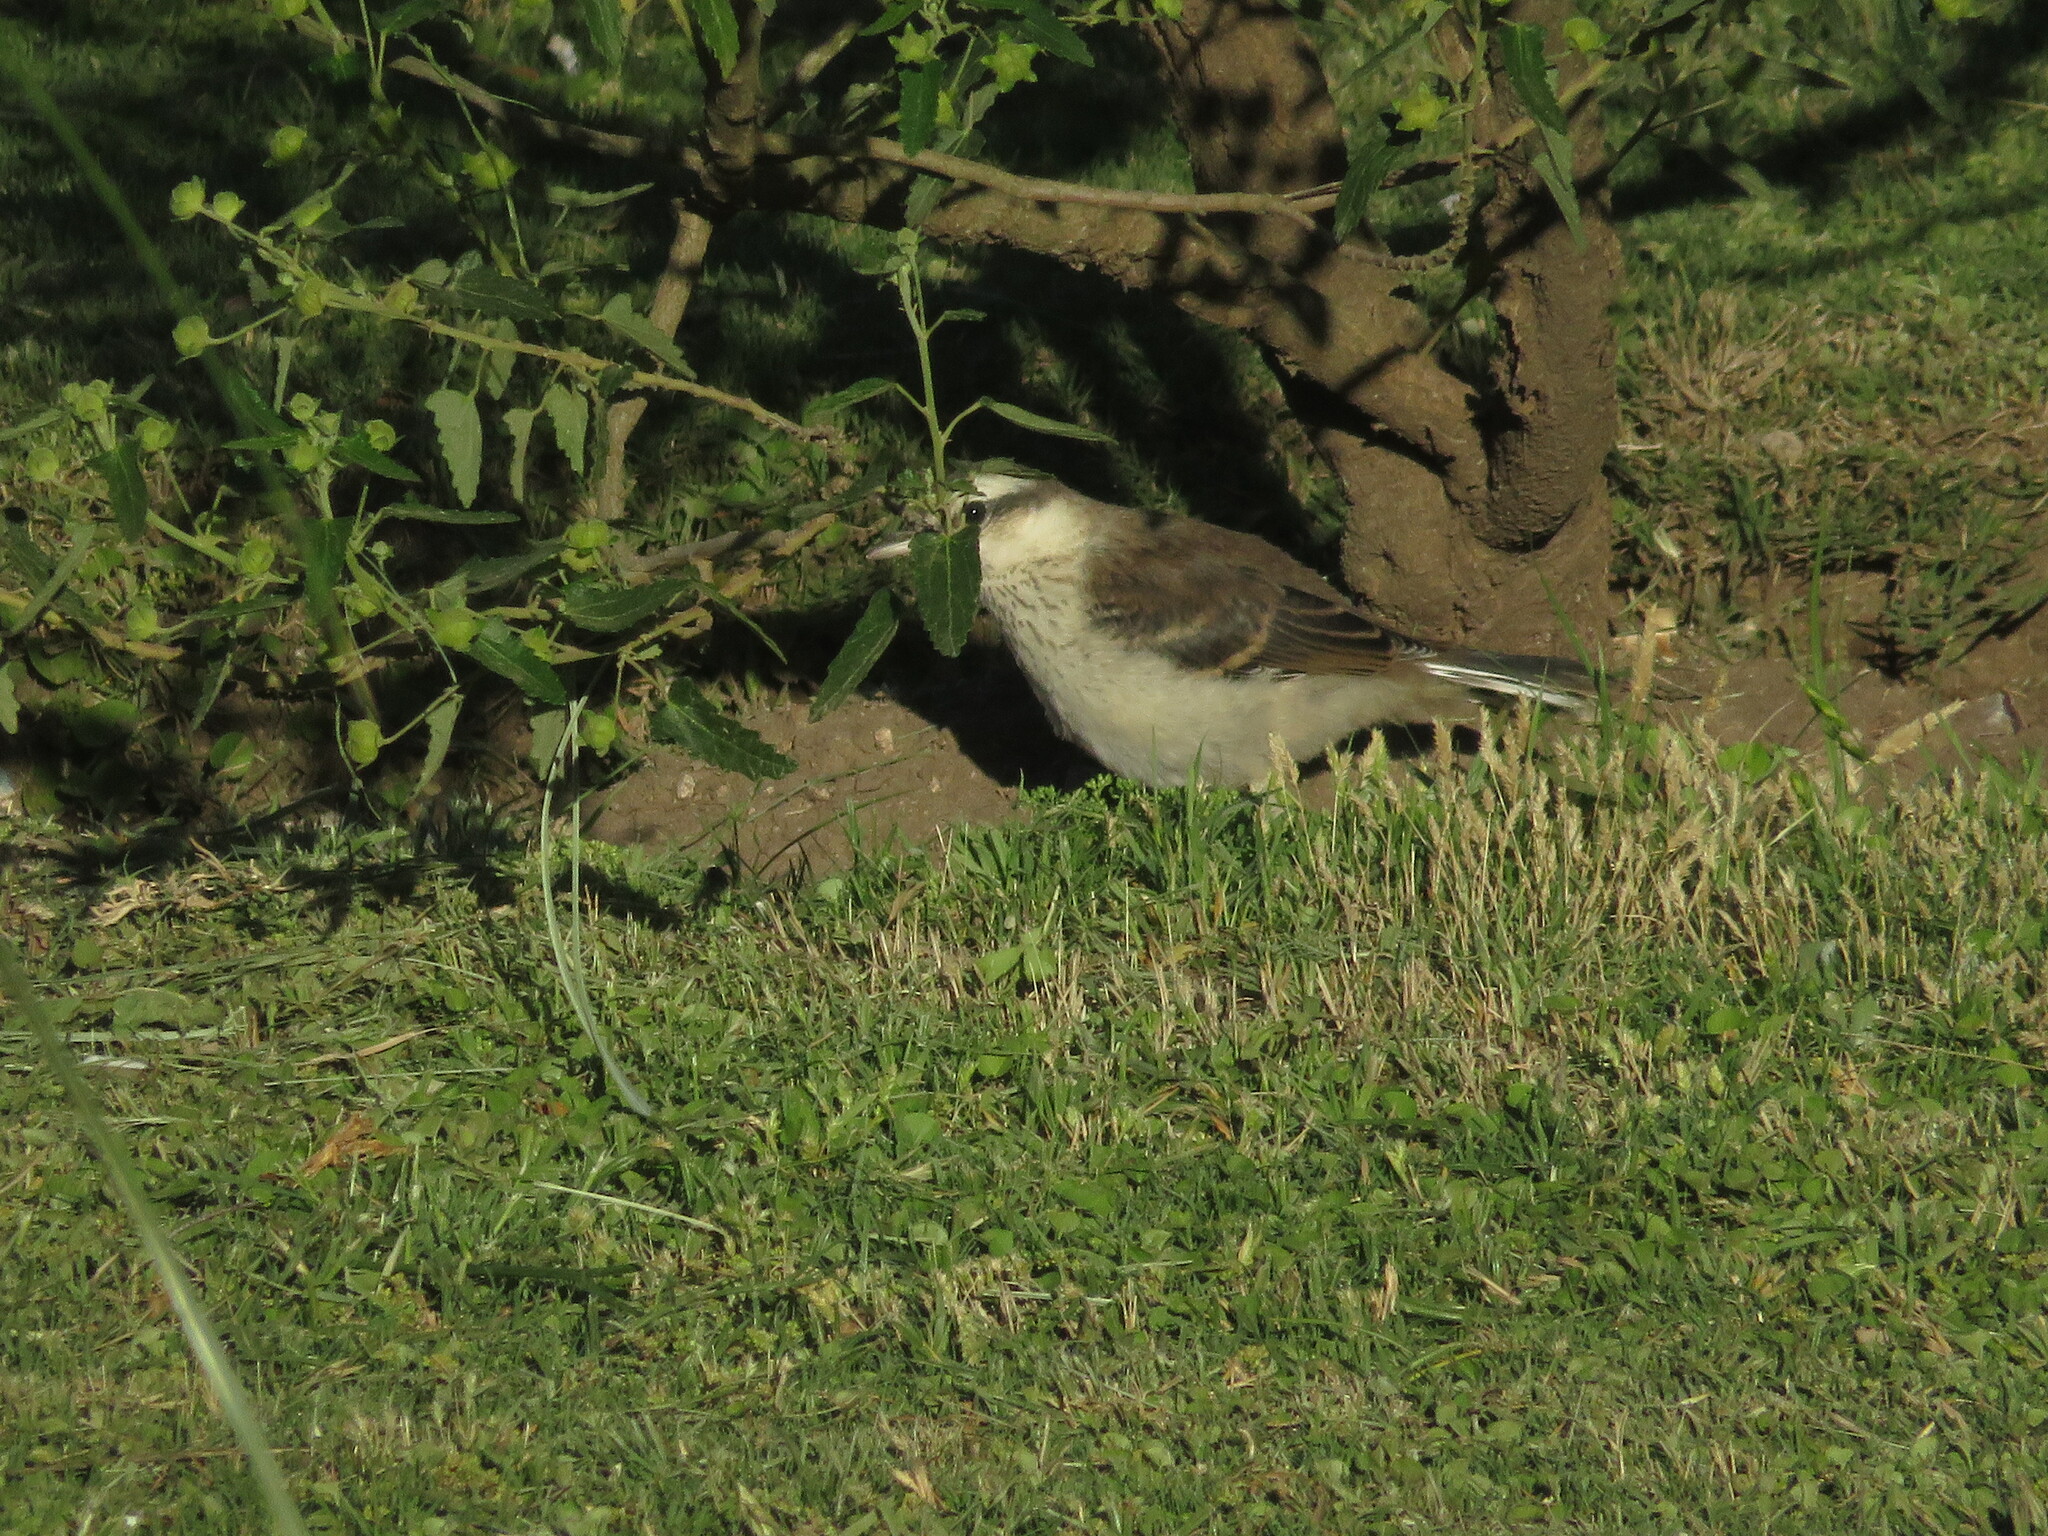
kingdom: Animalia
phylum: Chordata
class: Aves
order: Passeriformes
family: Mimidae
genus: Mimus
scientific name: Mimus saturninus
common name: Chalk-browed mockingbird
